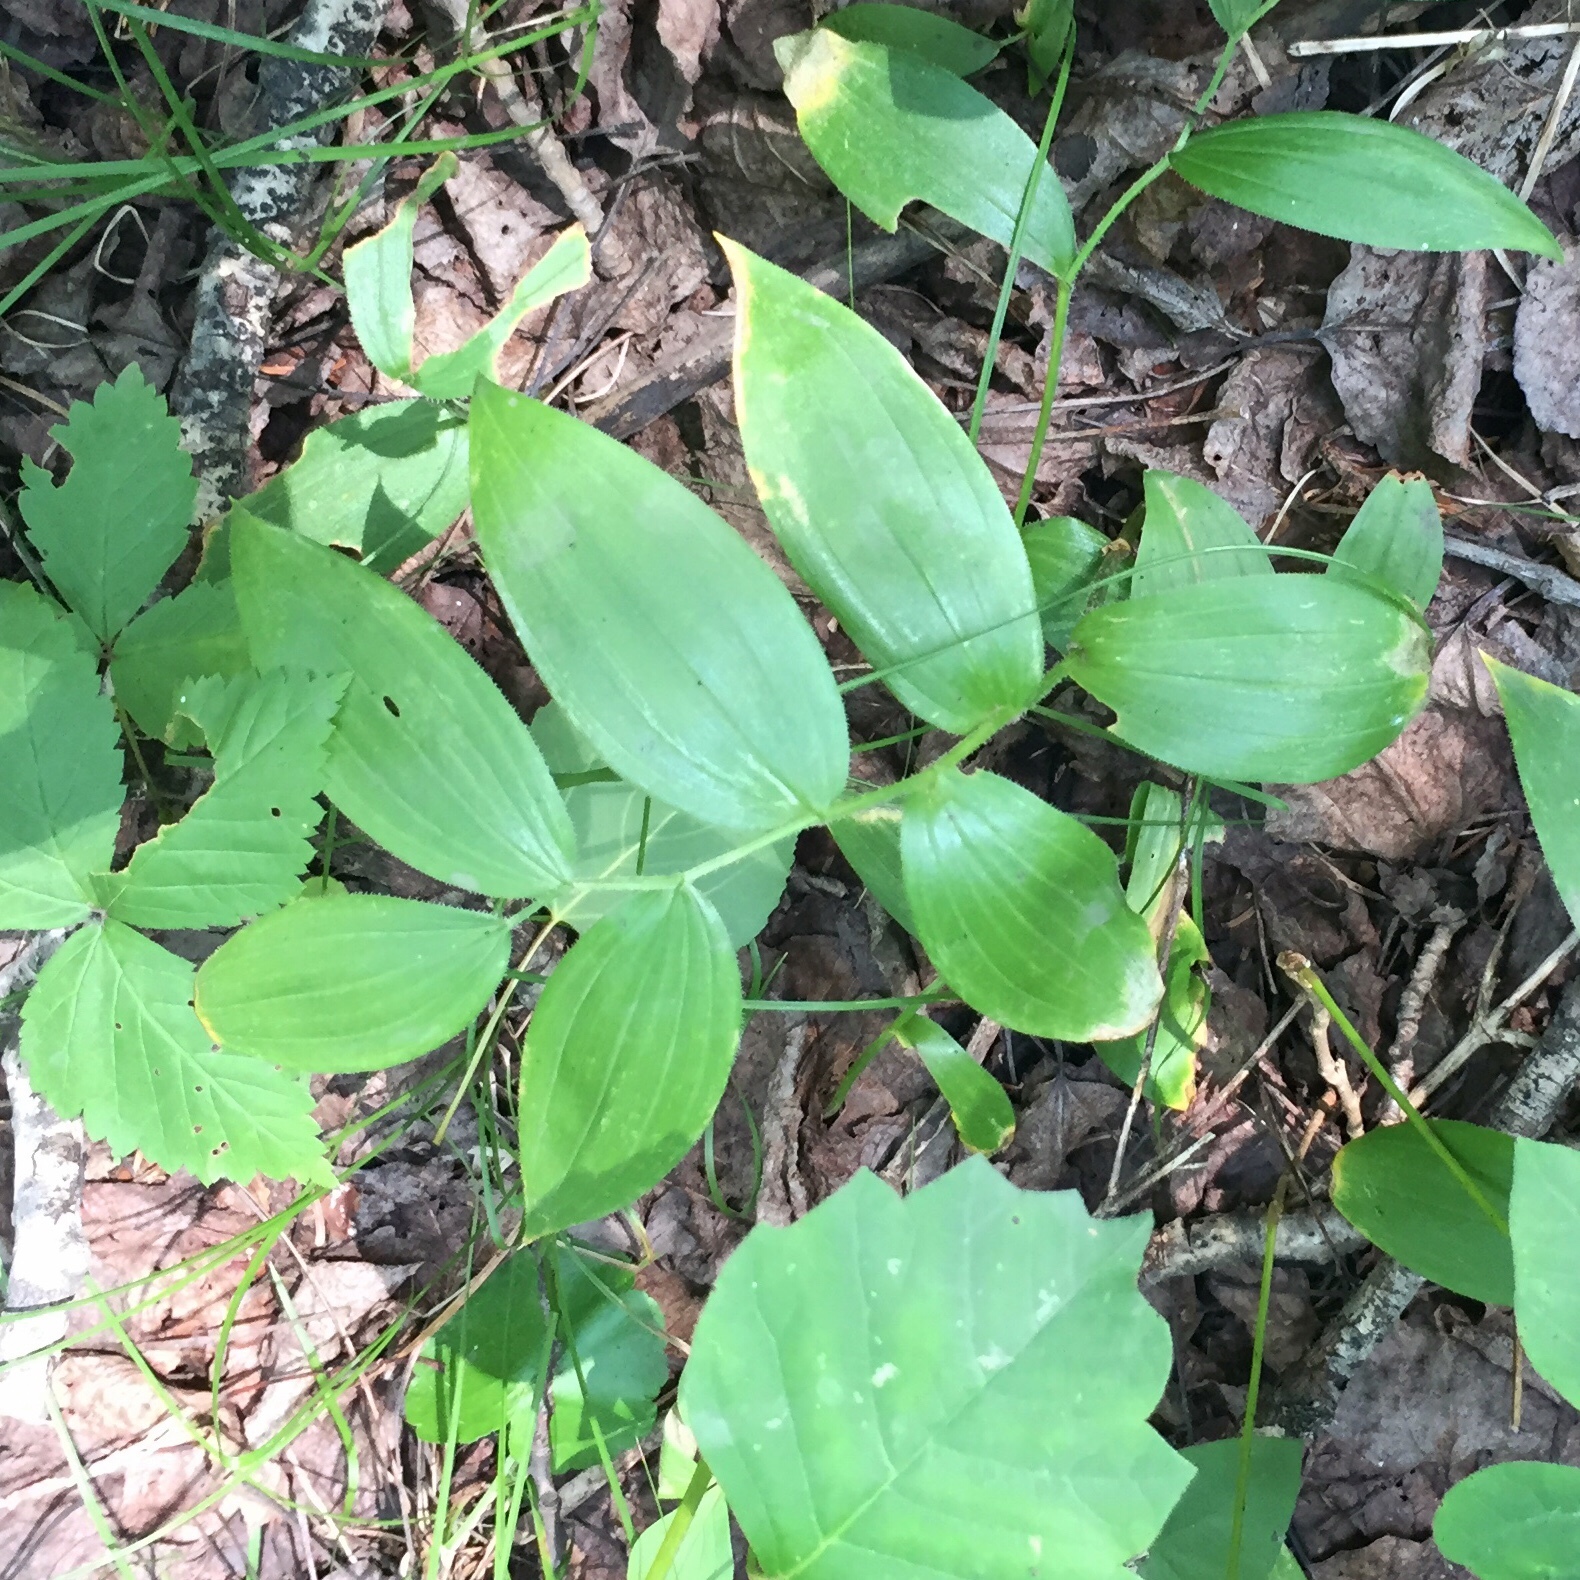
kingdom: Plantae
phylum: Tracheophyta
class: Liliopsida
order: Liliales
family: Liliaceae
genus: Streptopus
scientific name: Streptopus lanceolatus
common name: Rose mandarin
